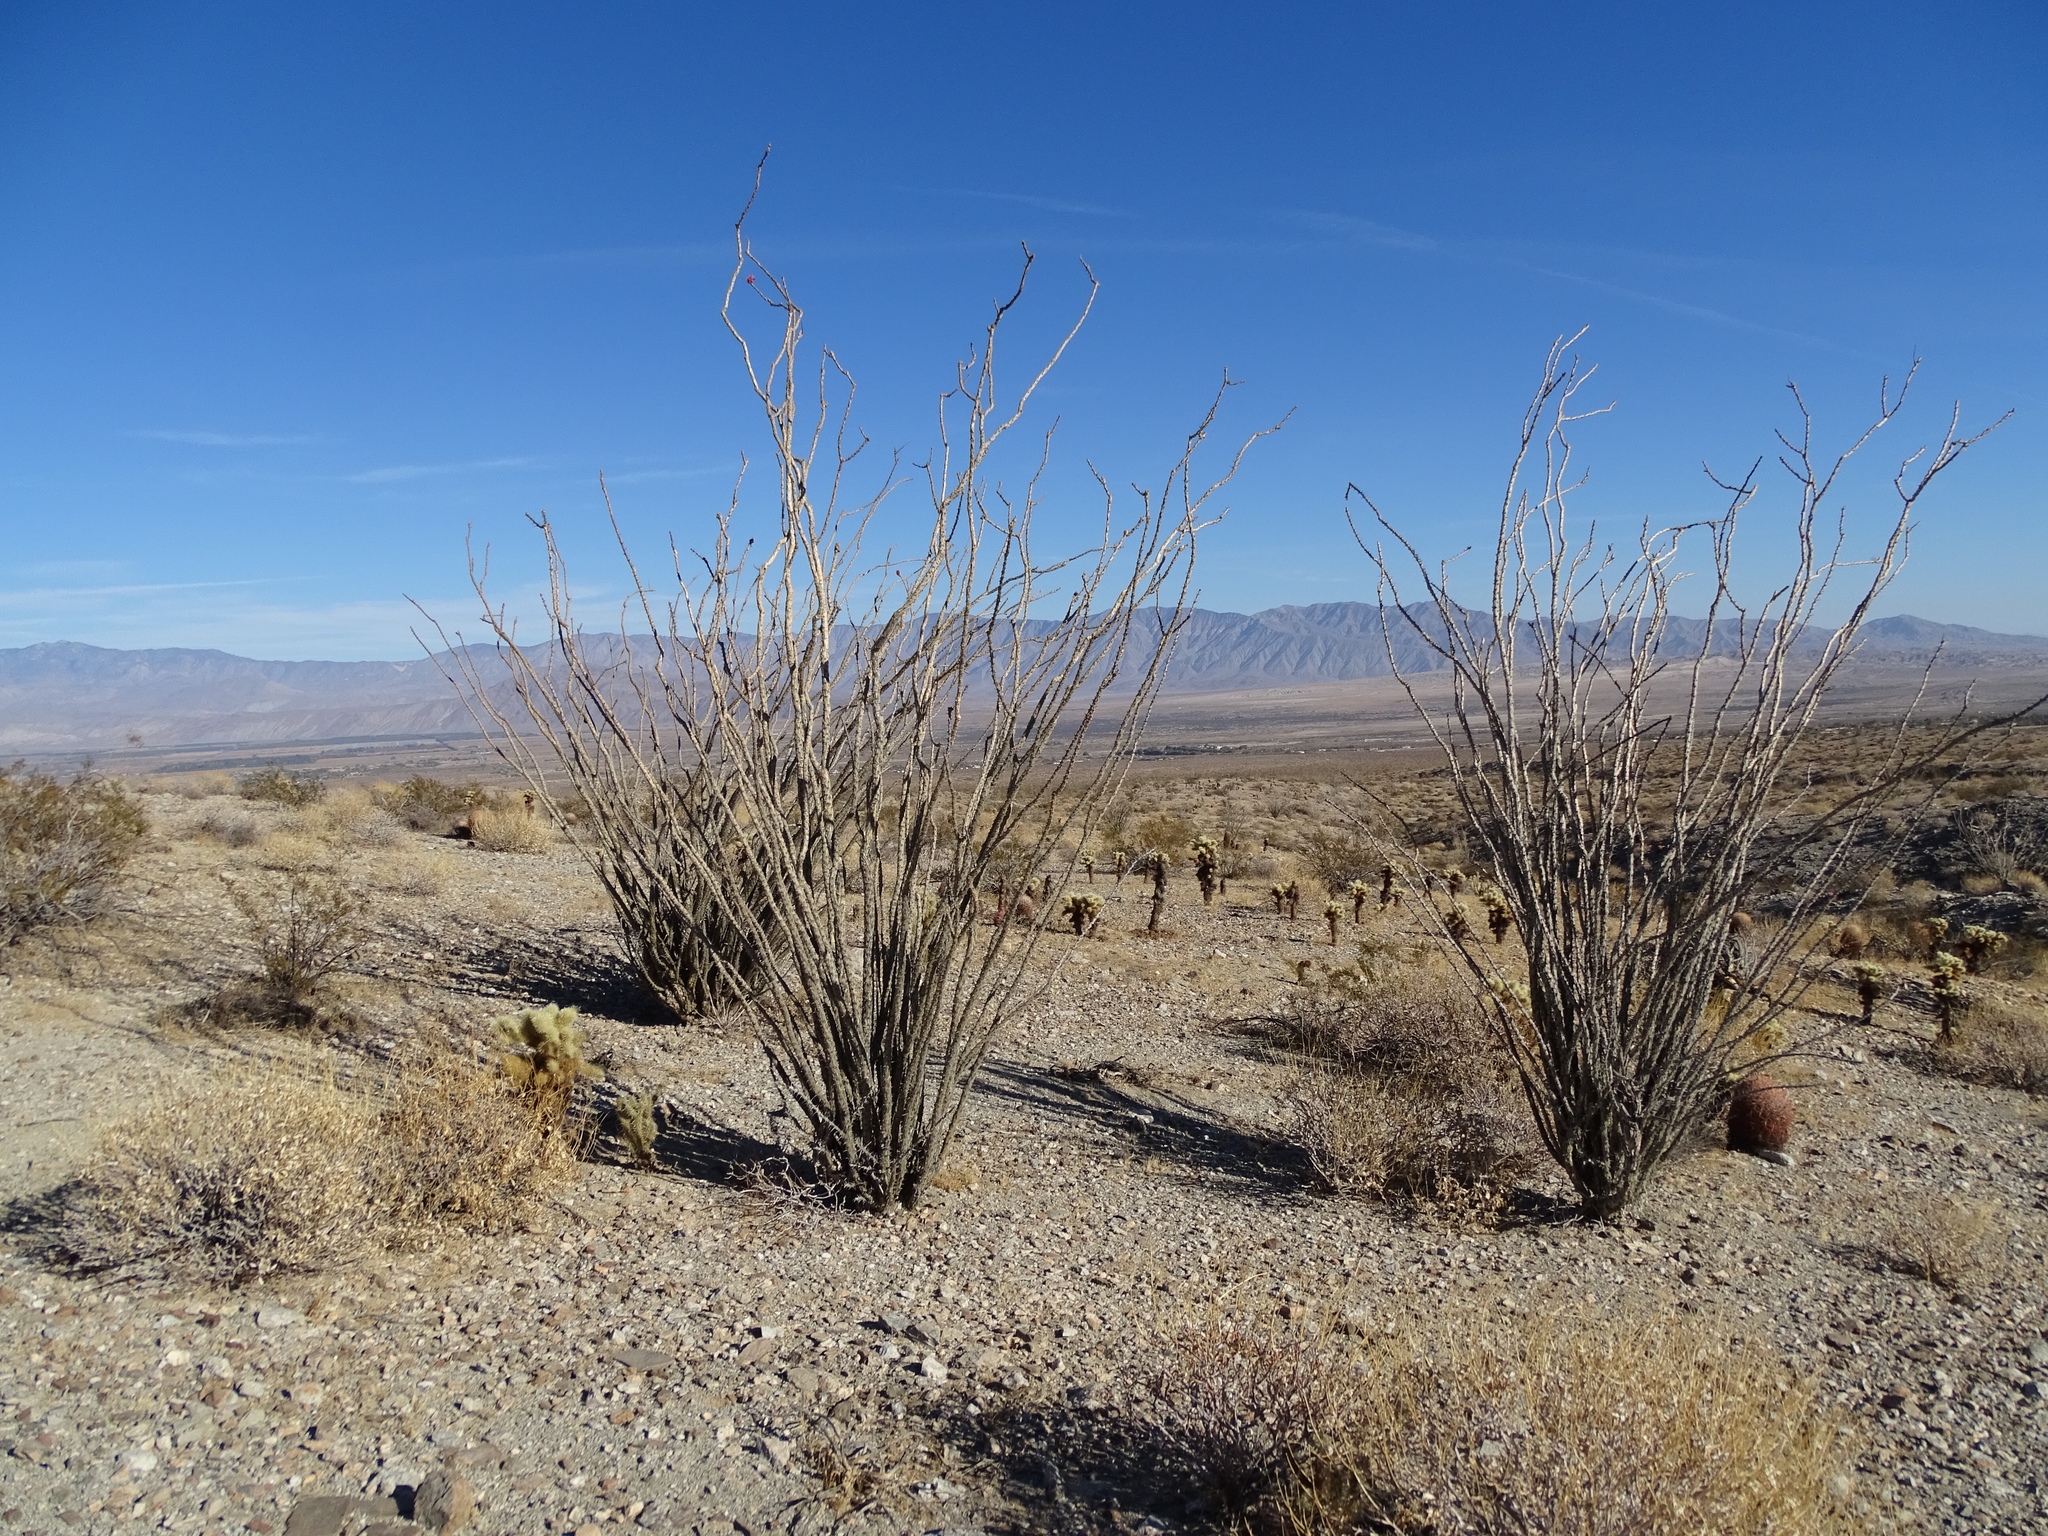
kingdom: Plantae
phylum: Tracheophyta
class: Magnoliopsida
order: Ericales
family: Fouquieriaceae
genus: Fouquieria
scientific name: Fouquieria splendens
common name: Vine-cactus
